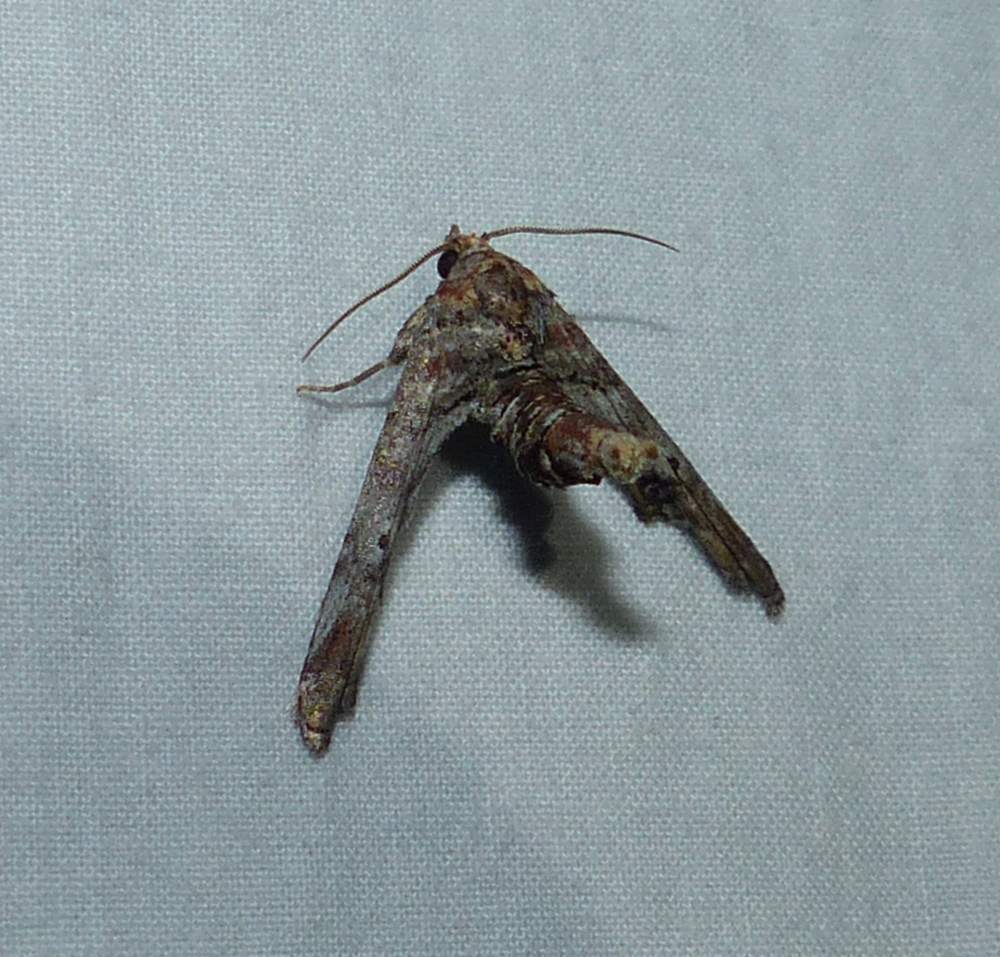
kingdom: Animalia
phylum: Arthropoda
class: Insecta
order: Lepidoptera
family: Euteliidae
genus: Marathyssa
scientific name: Marathyssa inficita
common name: Dark marathyssa moth
